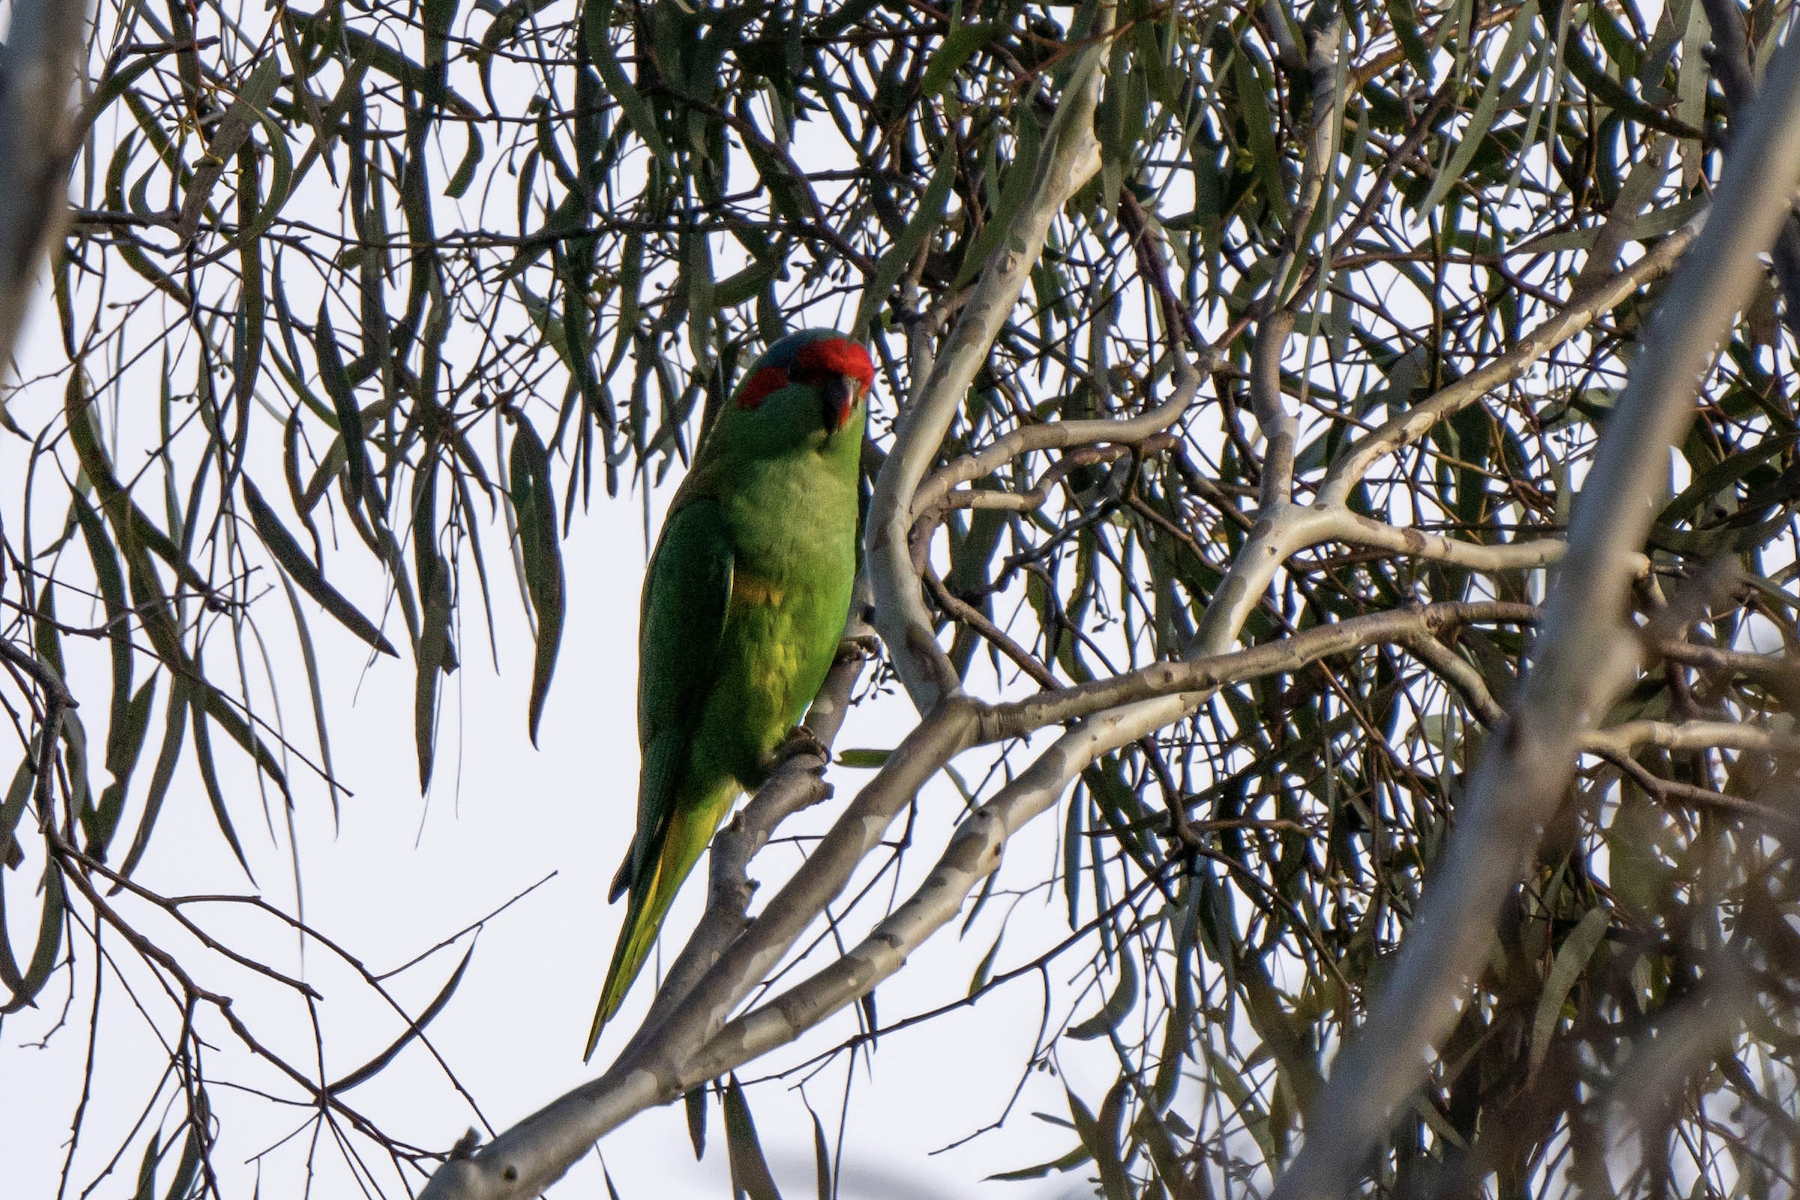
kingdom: Animalia
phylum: Chordata
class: Aves
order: Psittaciformes
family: Psittacidae
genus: Glossopsitta
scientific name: Glossopsitta concinna
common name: Musk lorikeet
